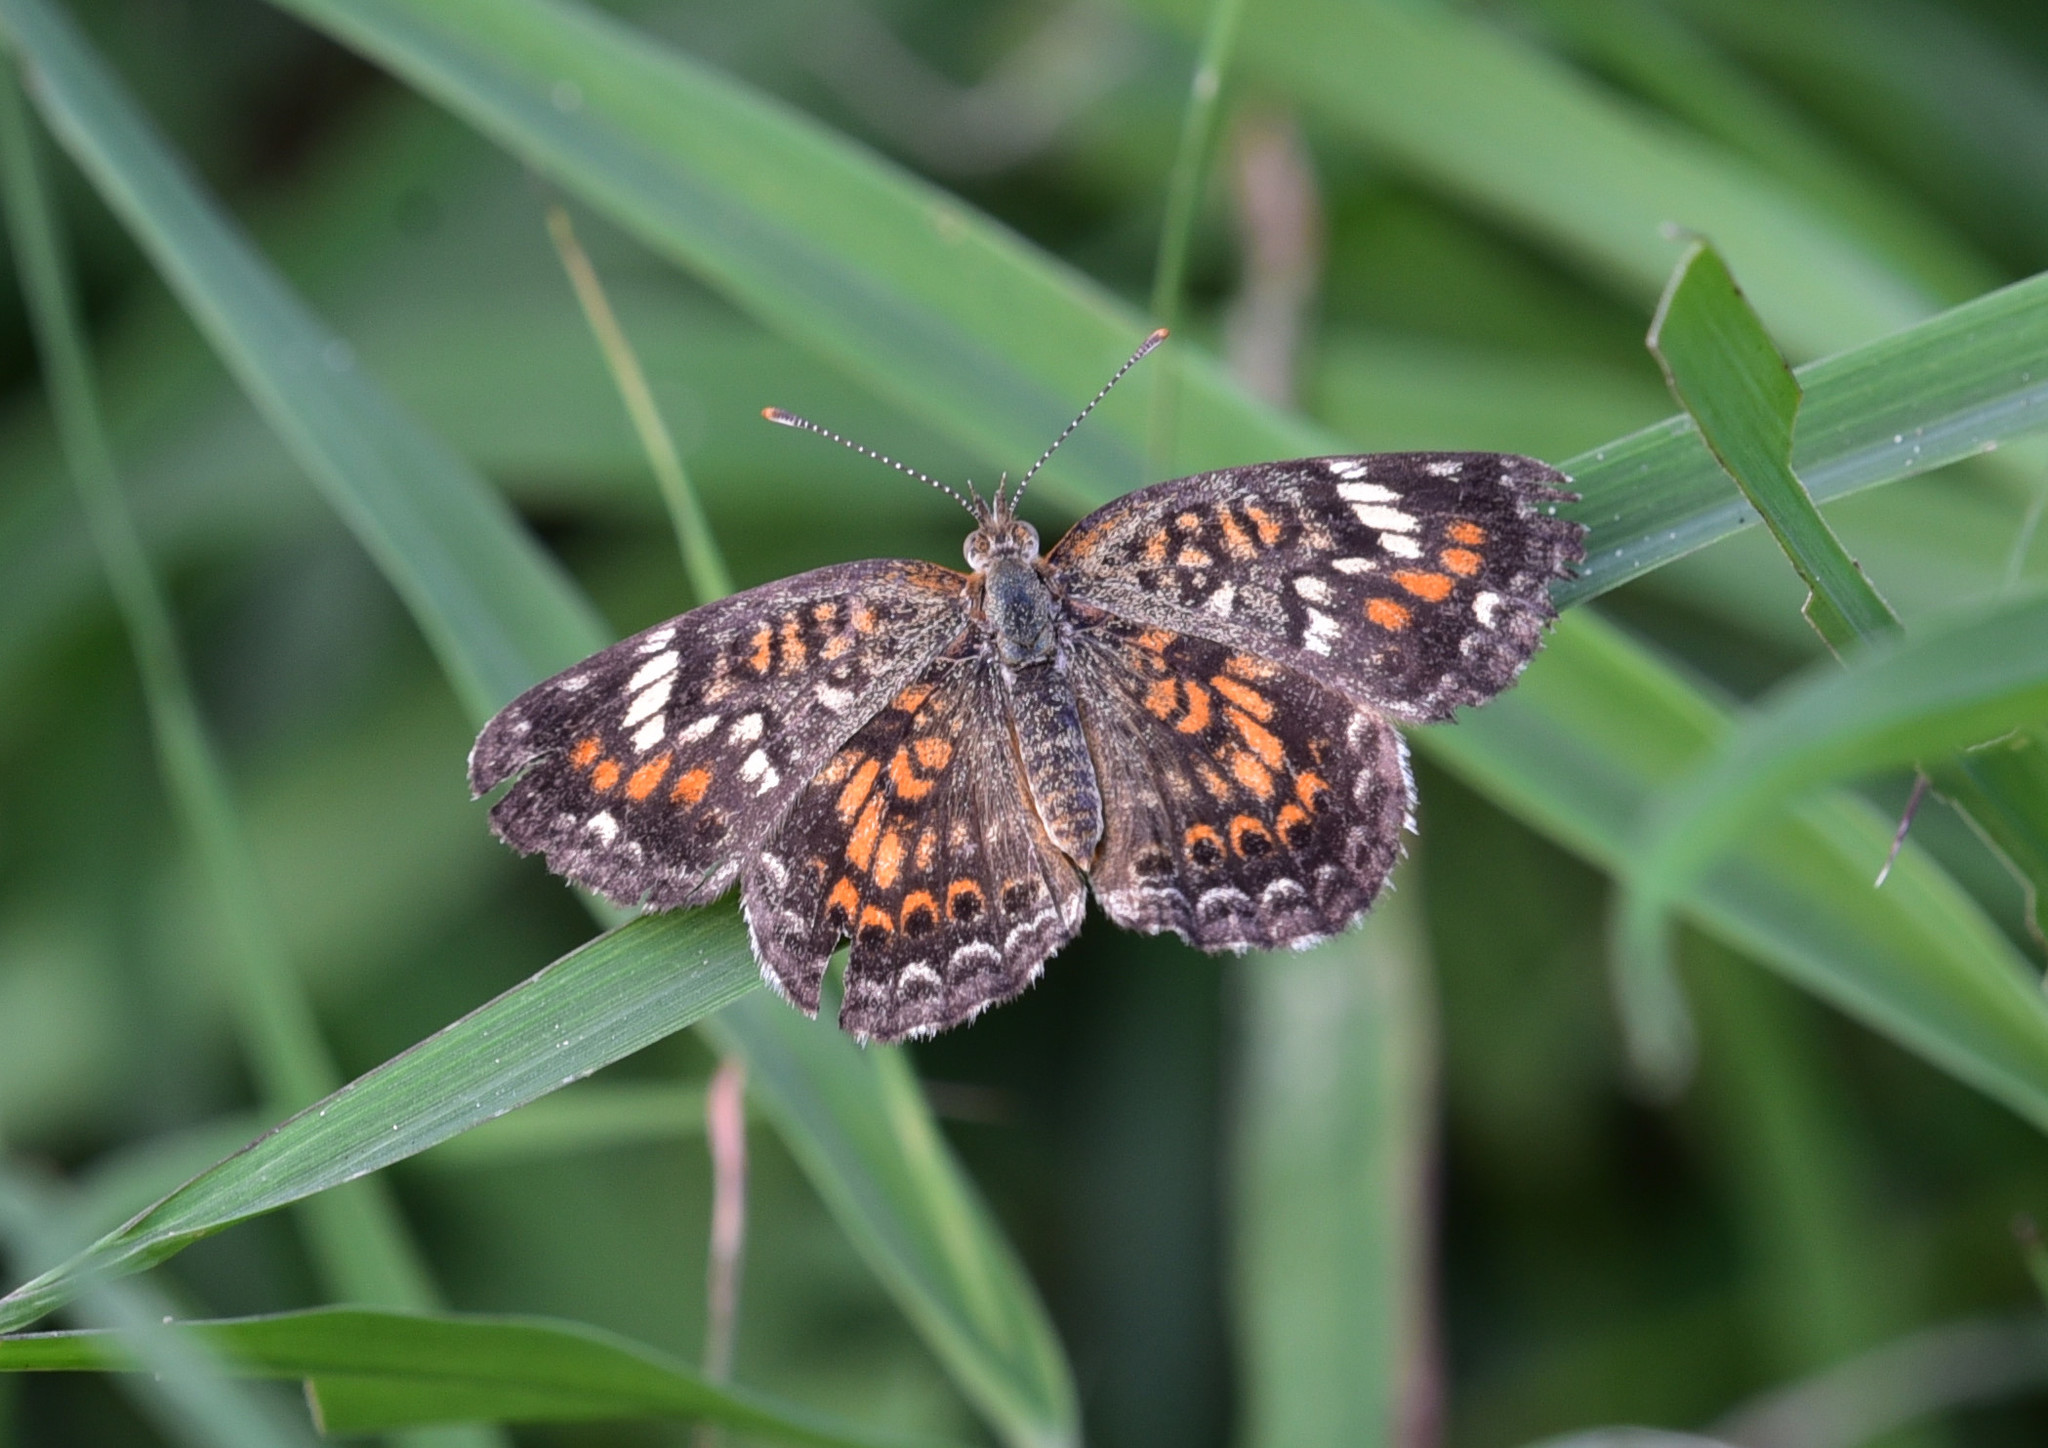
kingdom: Animalia
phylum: Arthropoda
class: Insecta
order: Lepidoptera
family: Nymphalidae
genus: Phyciodes
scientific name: Phyciodes phaon
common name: Phaon crescent
